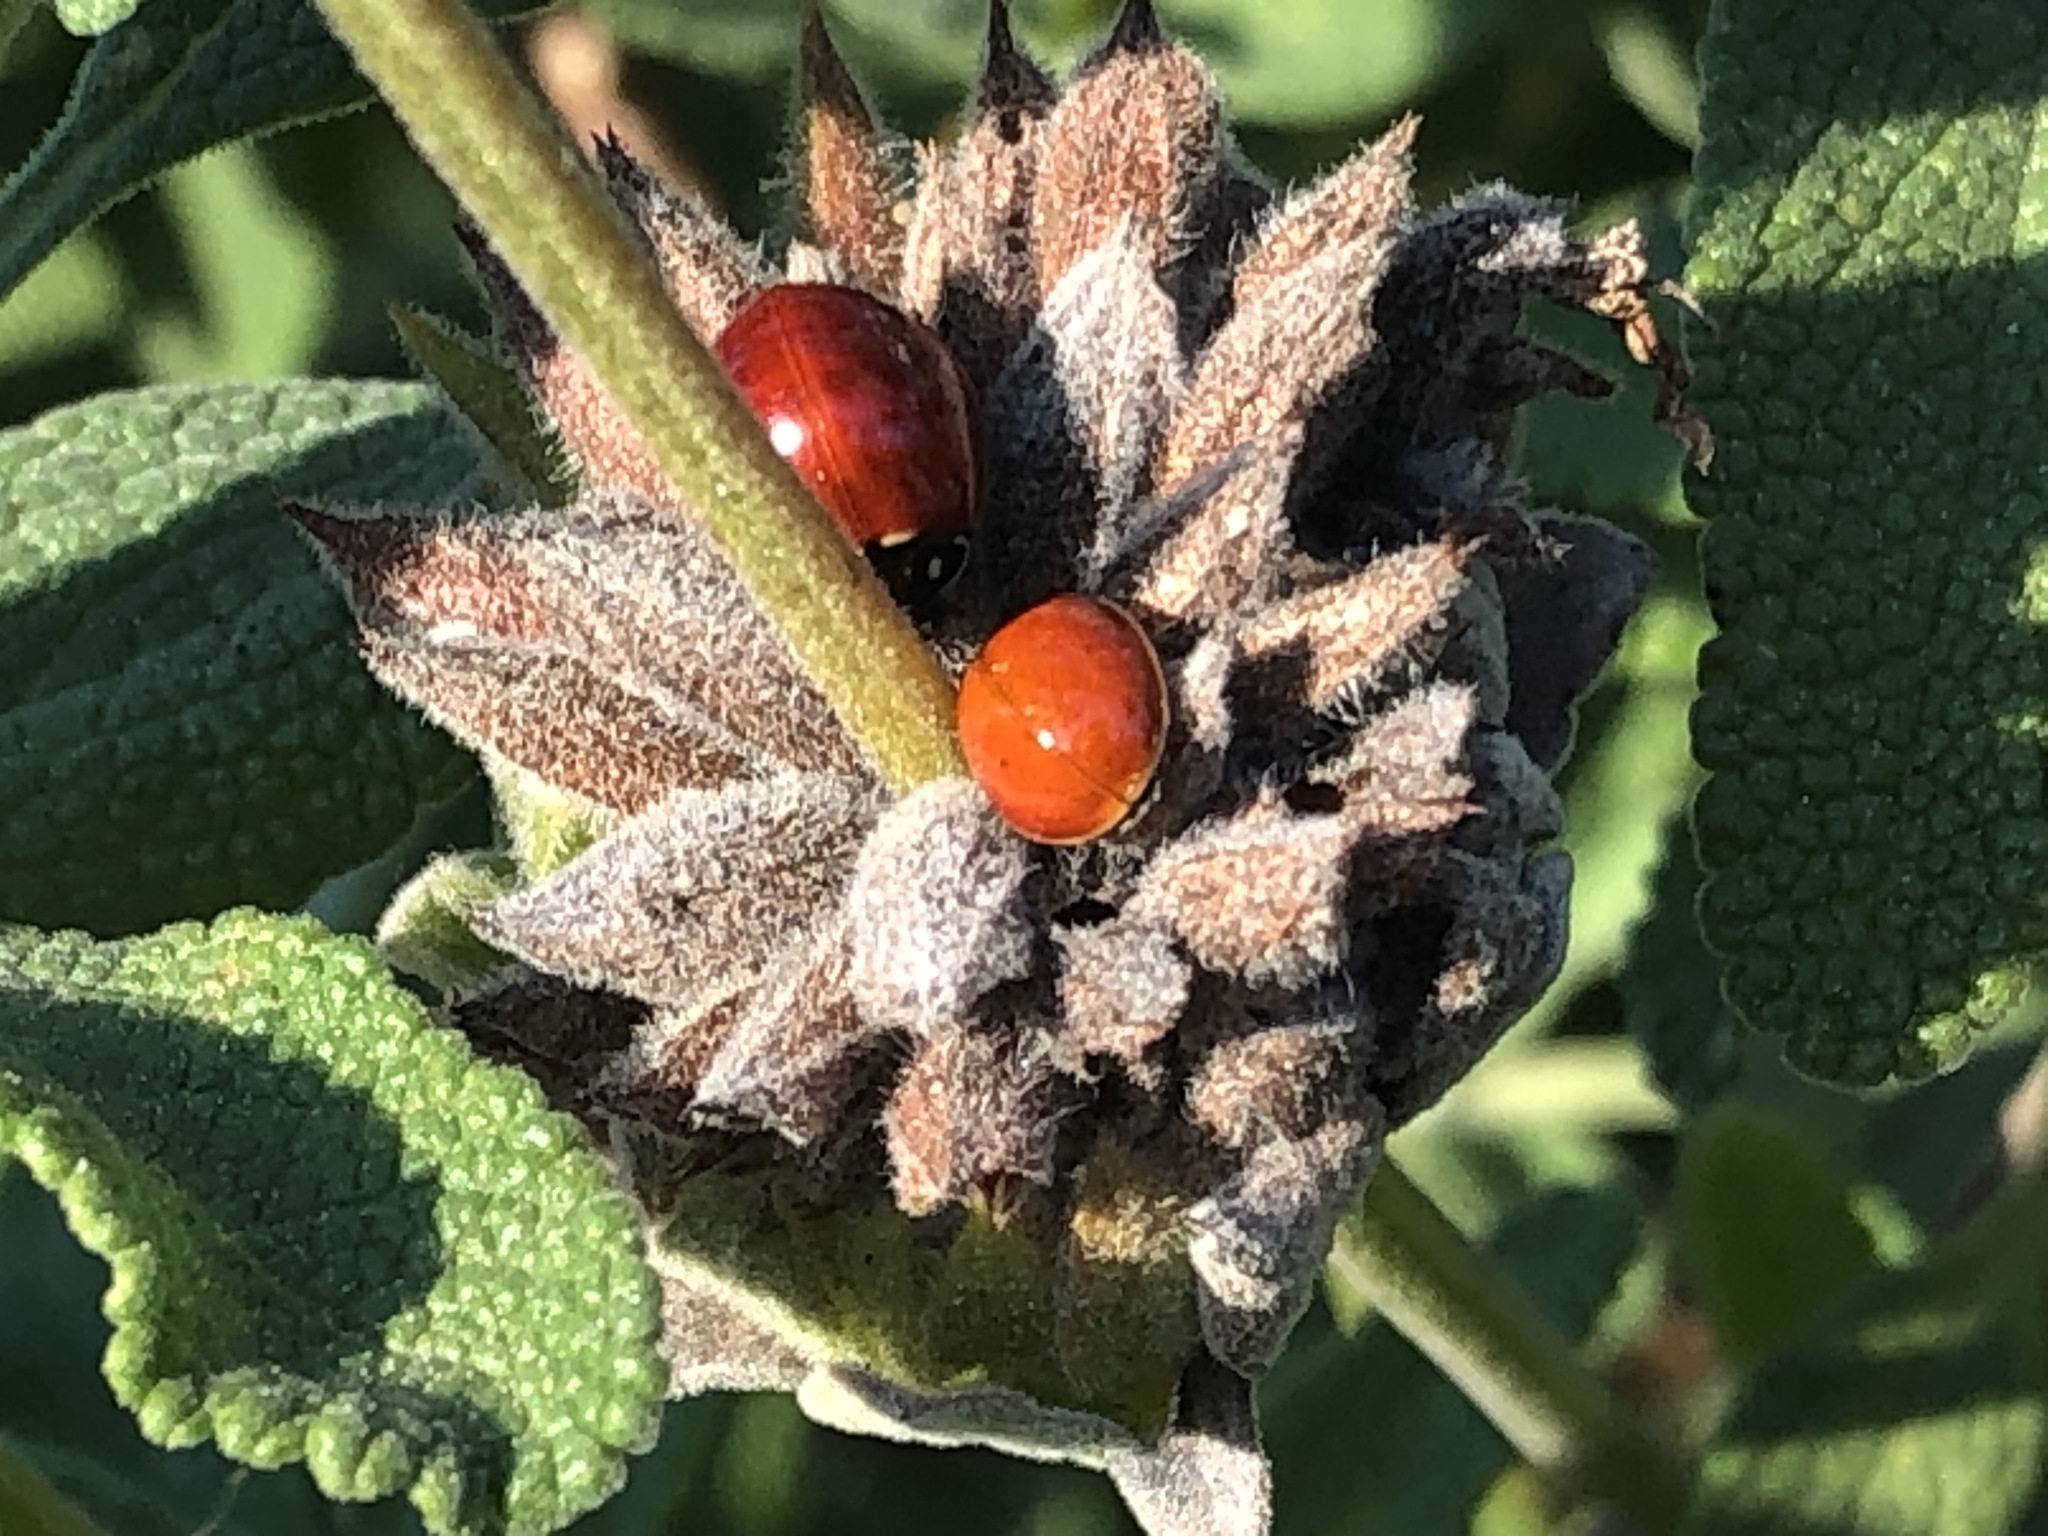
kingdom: Animalia
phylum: Arthropoda
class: Insecta
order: Coleoptera
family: Coccinellidae
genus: Cycloneda
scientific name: Cycloneda sanguinea
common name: Ladybird beetle
